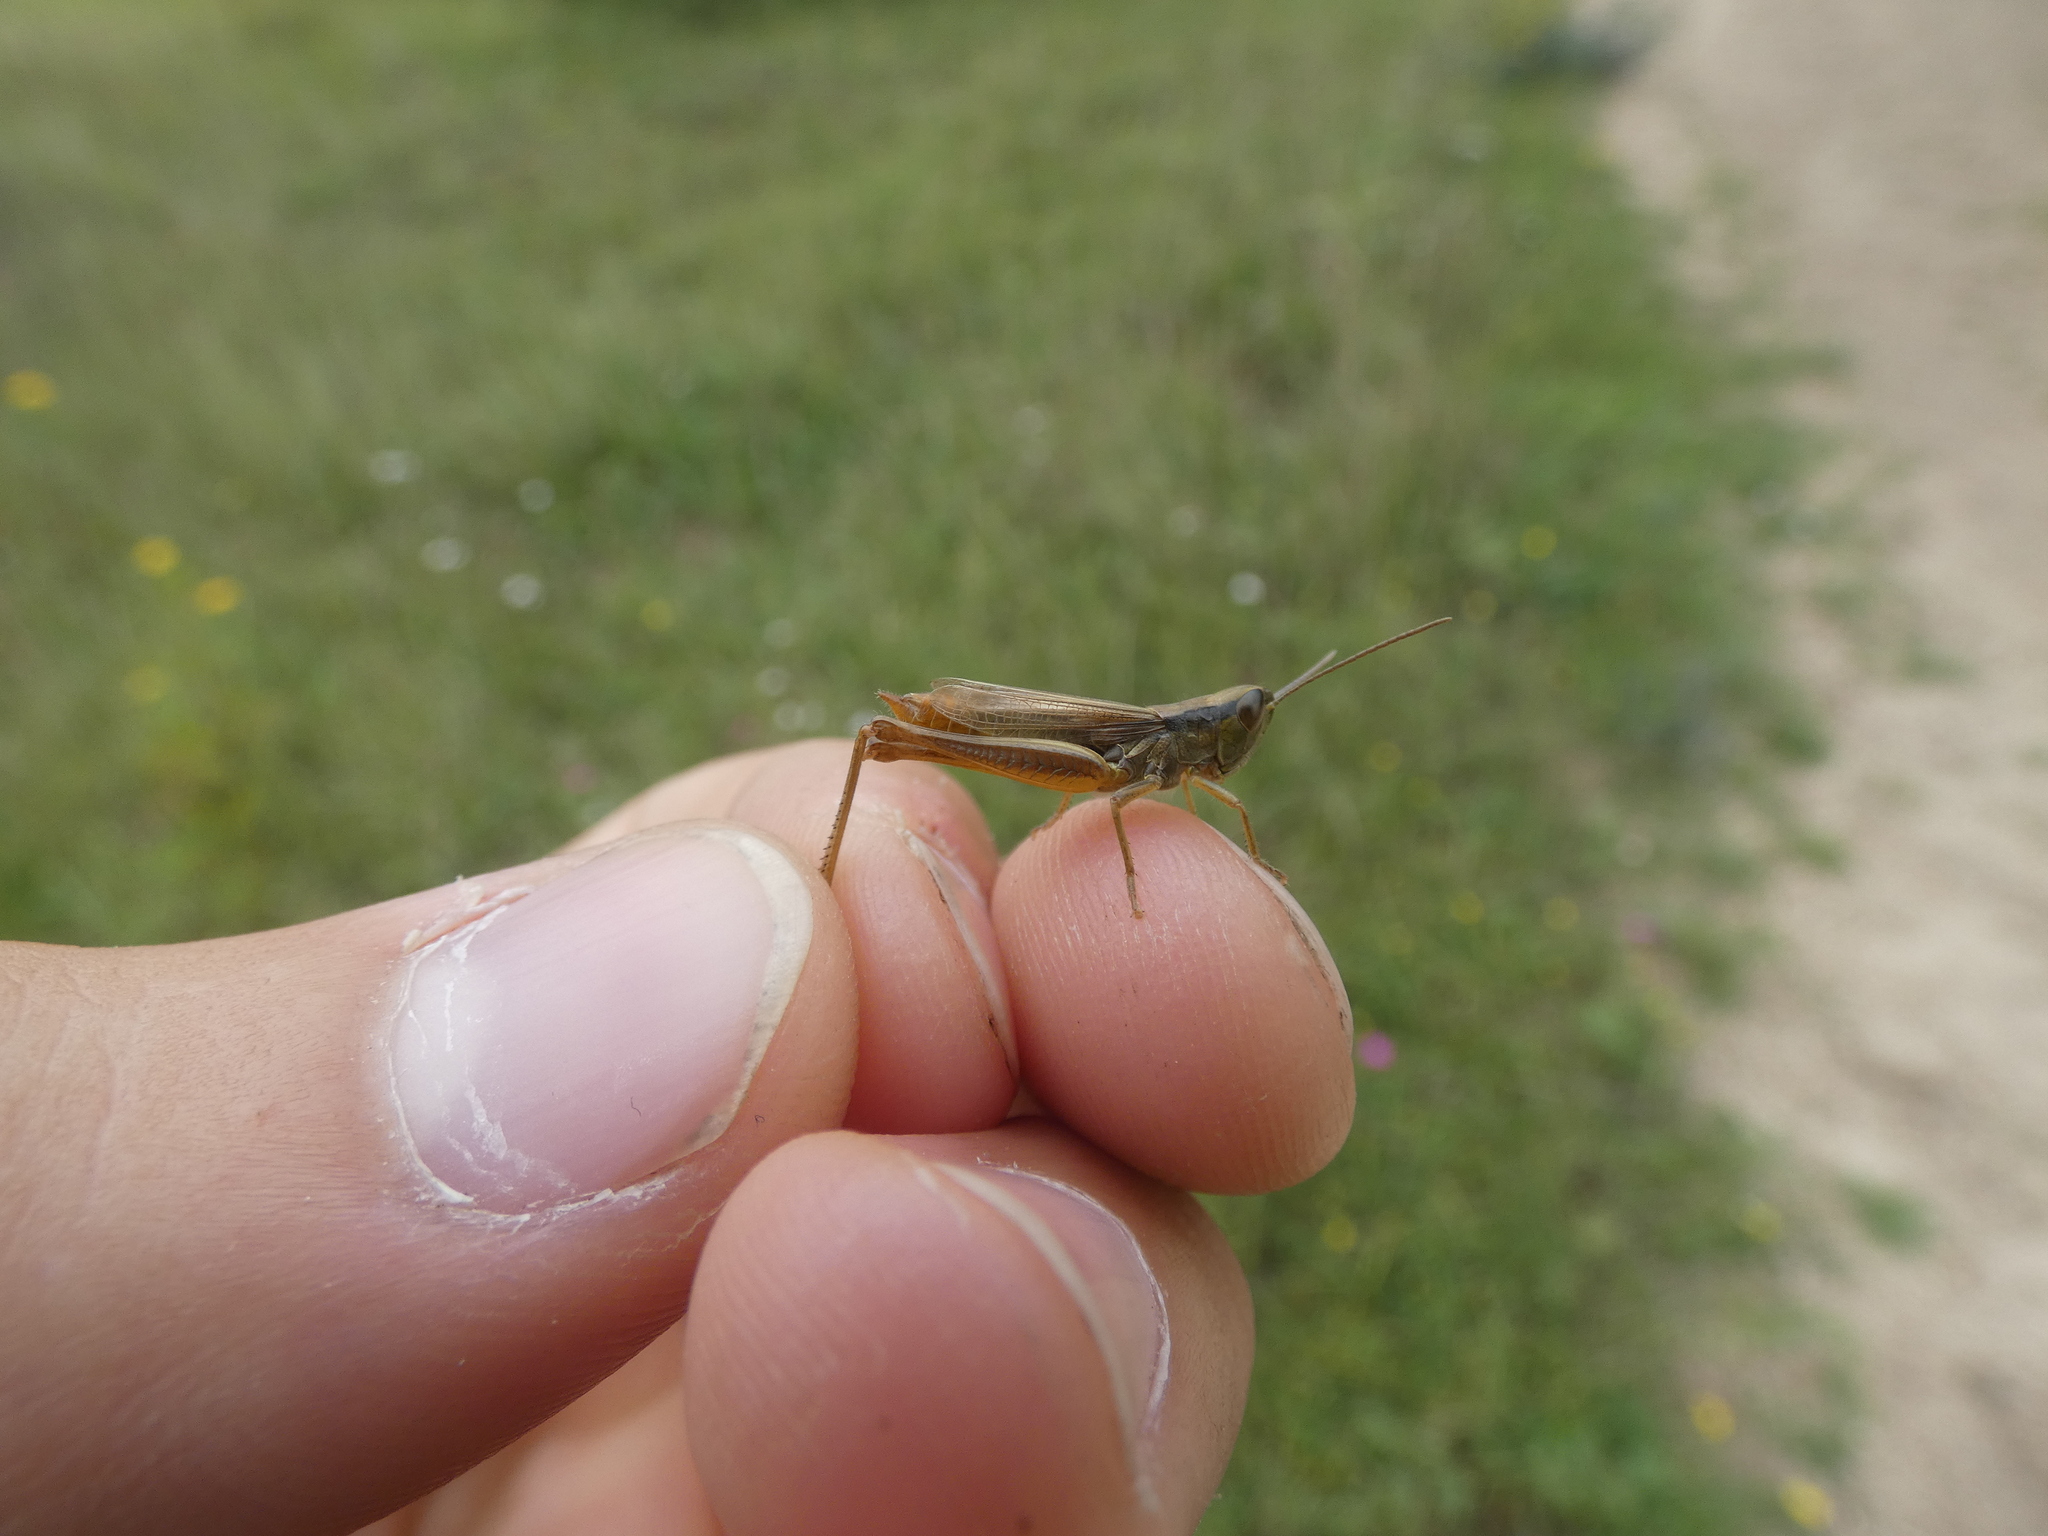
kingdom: Animalia
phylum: Arthropoda
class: Insecta
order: Orthoptera
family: Acrididae
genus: Euchorthippus
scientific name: Euchorthippus declivus
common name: Common straw grasshopper
